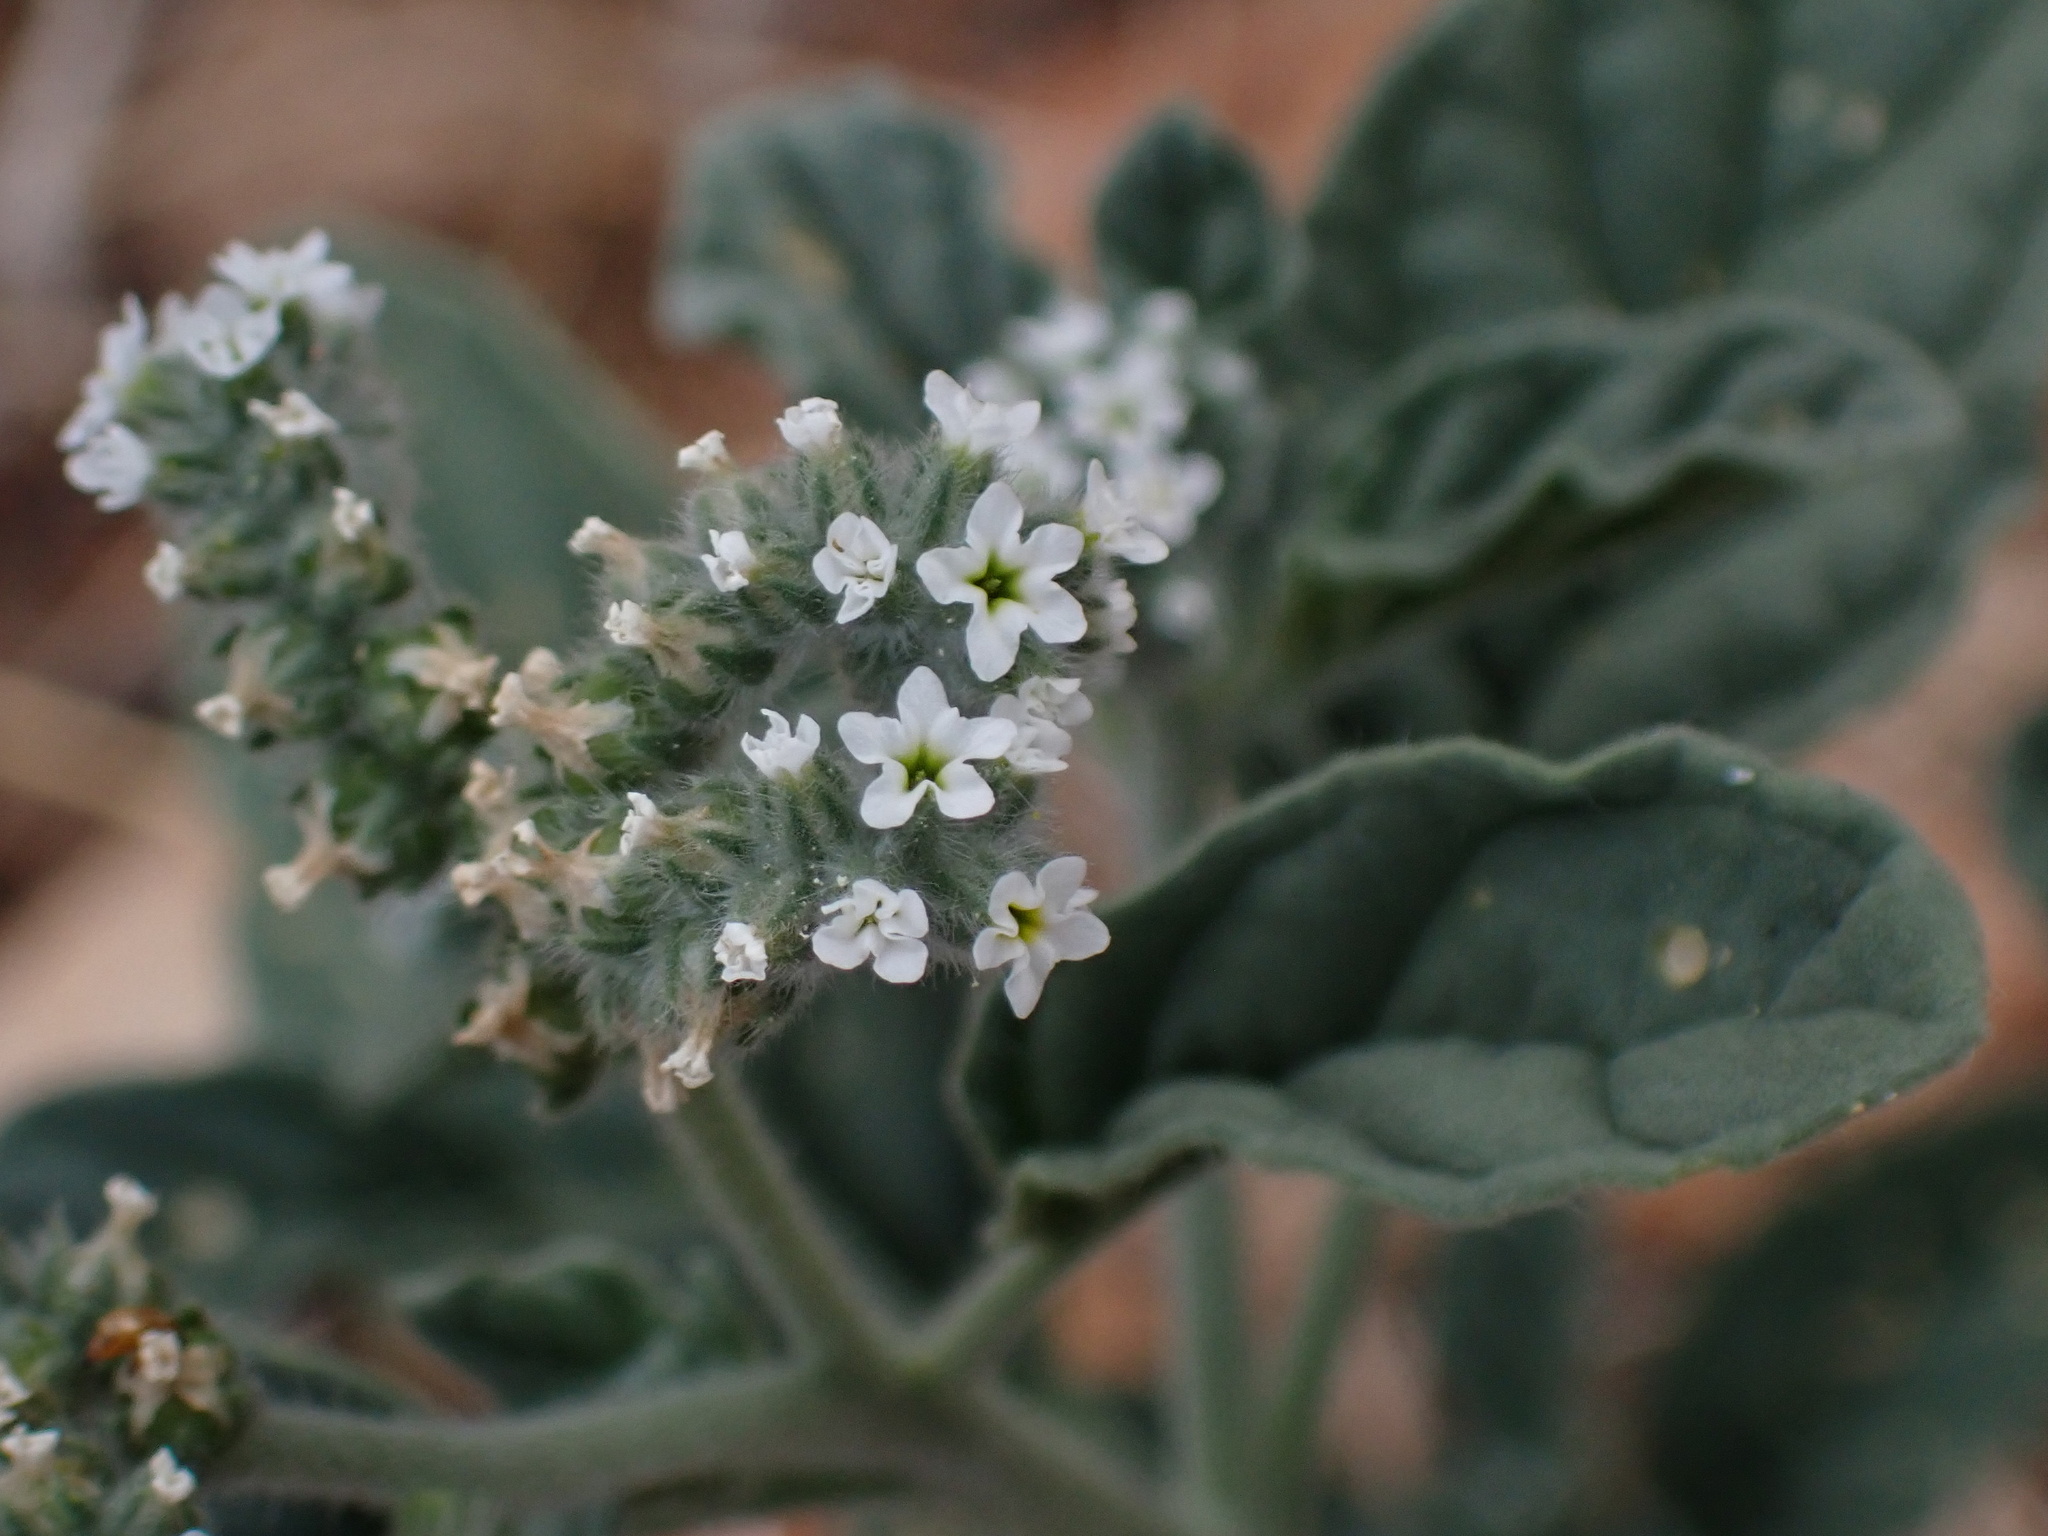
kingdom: Plantae
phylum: Tracheophyta
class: Magnoliopsida
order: Boraginales
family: Heliotropiaceae
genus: Heliotropium
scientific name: Heliotropium europaeum
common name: European heliotrope
